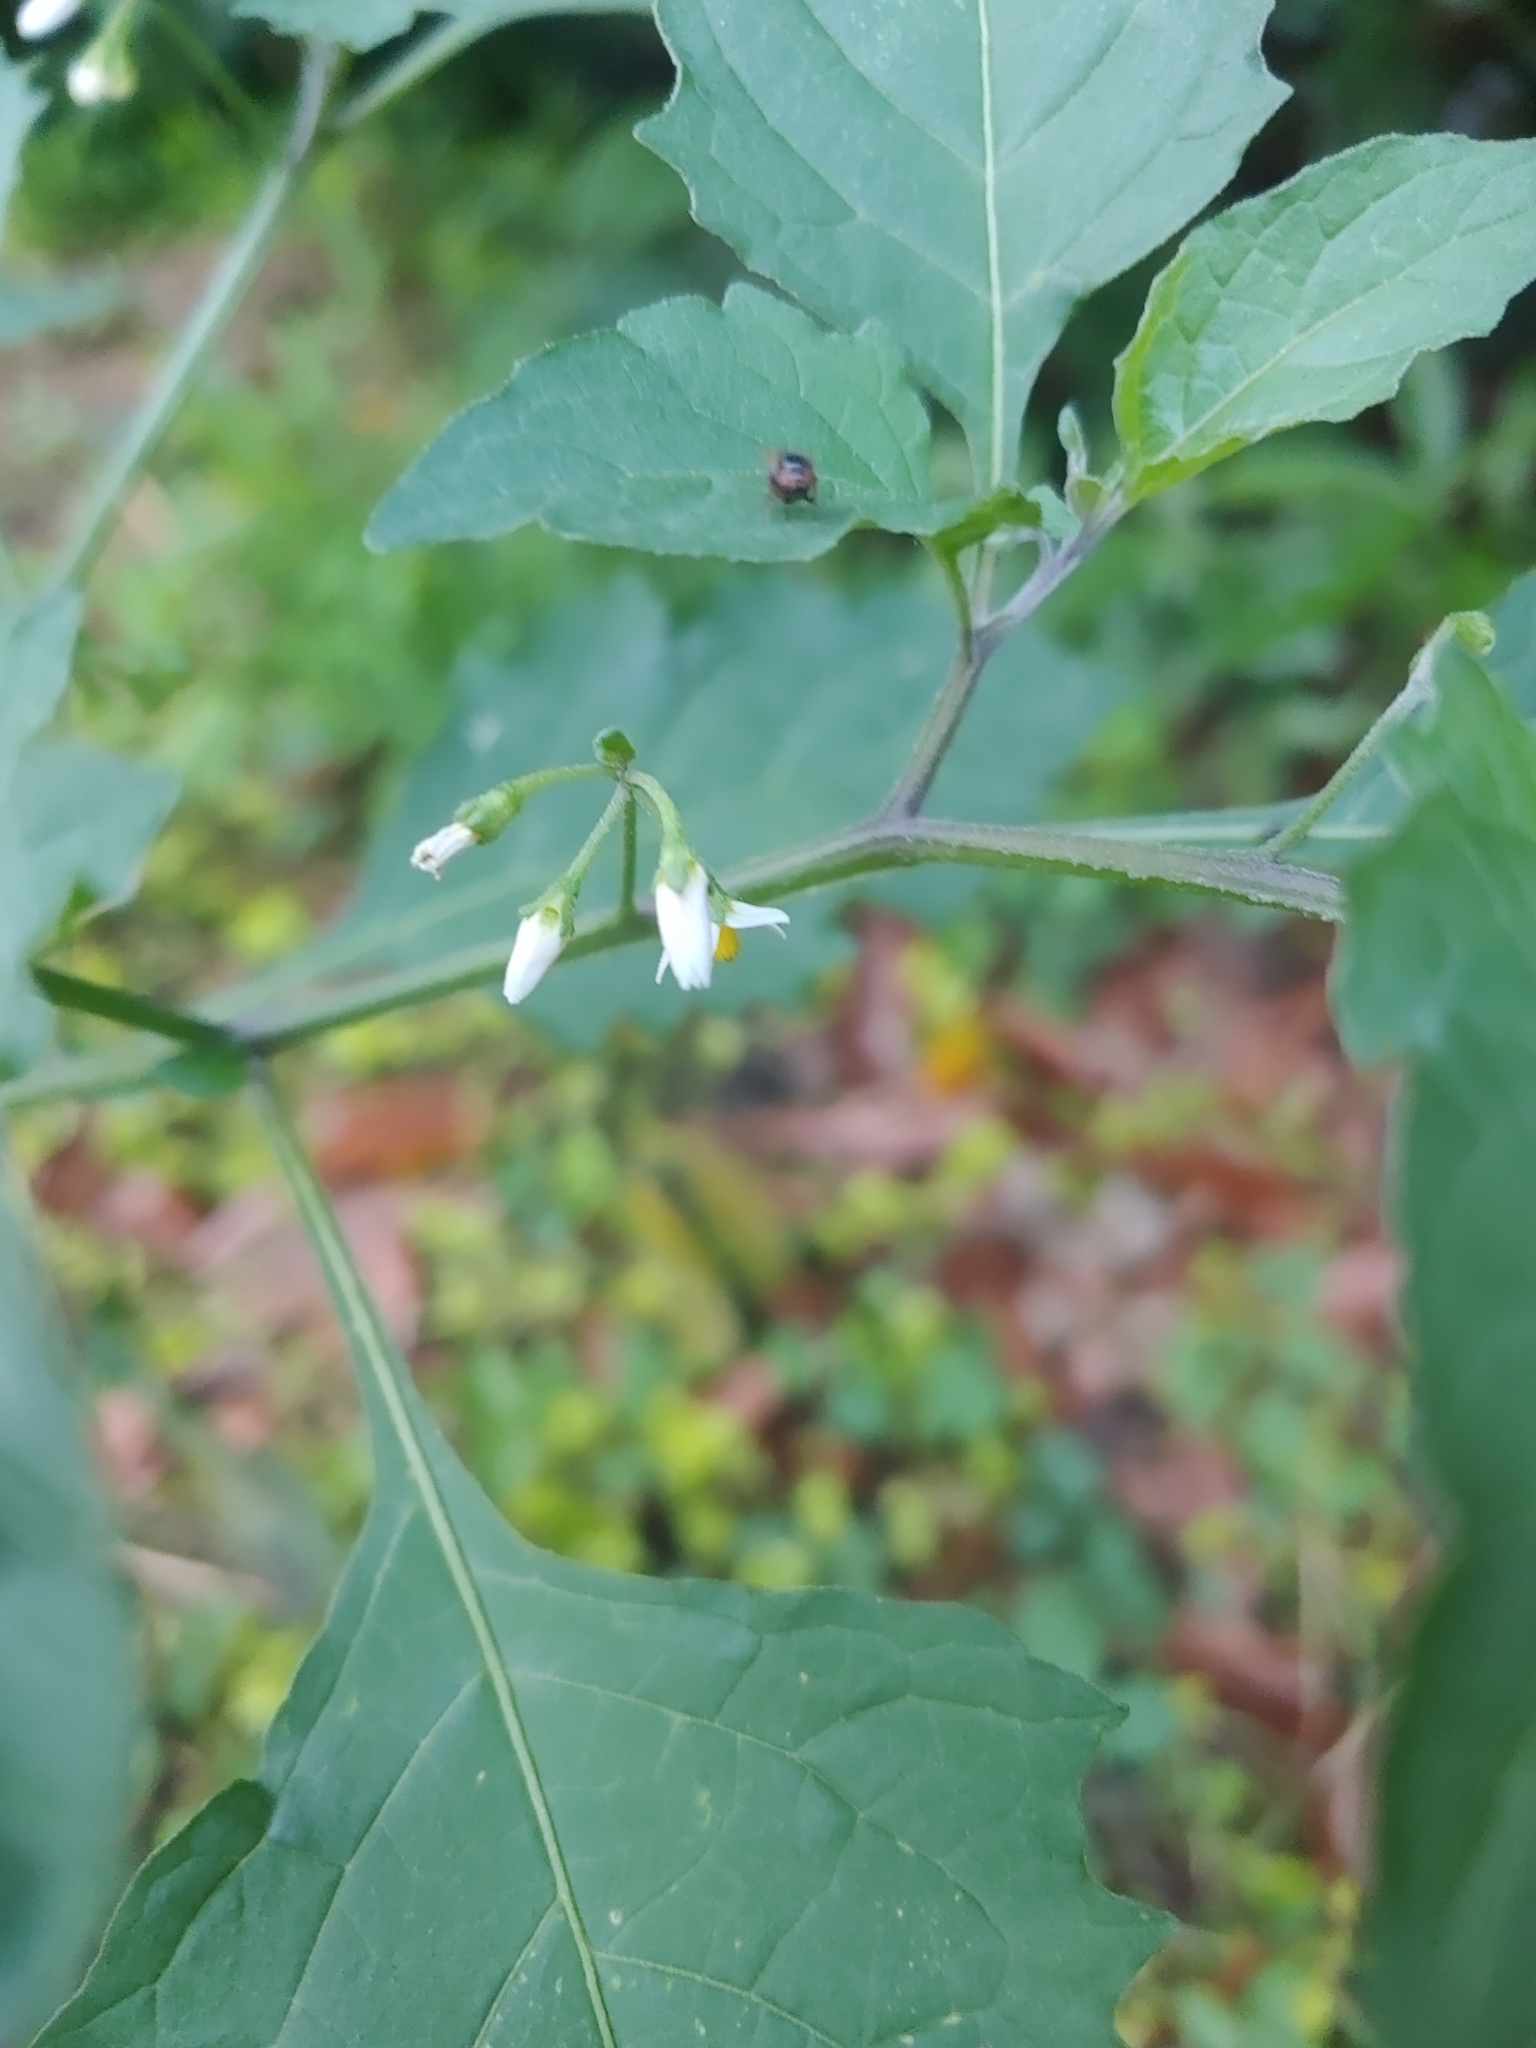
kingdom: Plantae
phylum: Tracheophyta
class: Magnoliopsida
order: Solanales
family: Solanaceae
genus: Solanum
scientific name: Solanum emulans
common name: Eastern black nightshade
